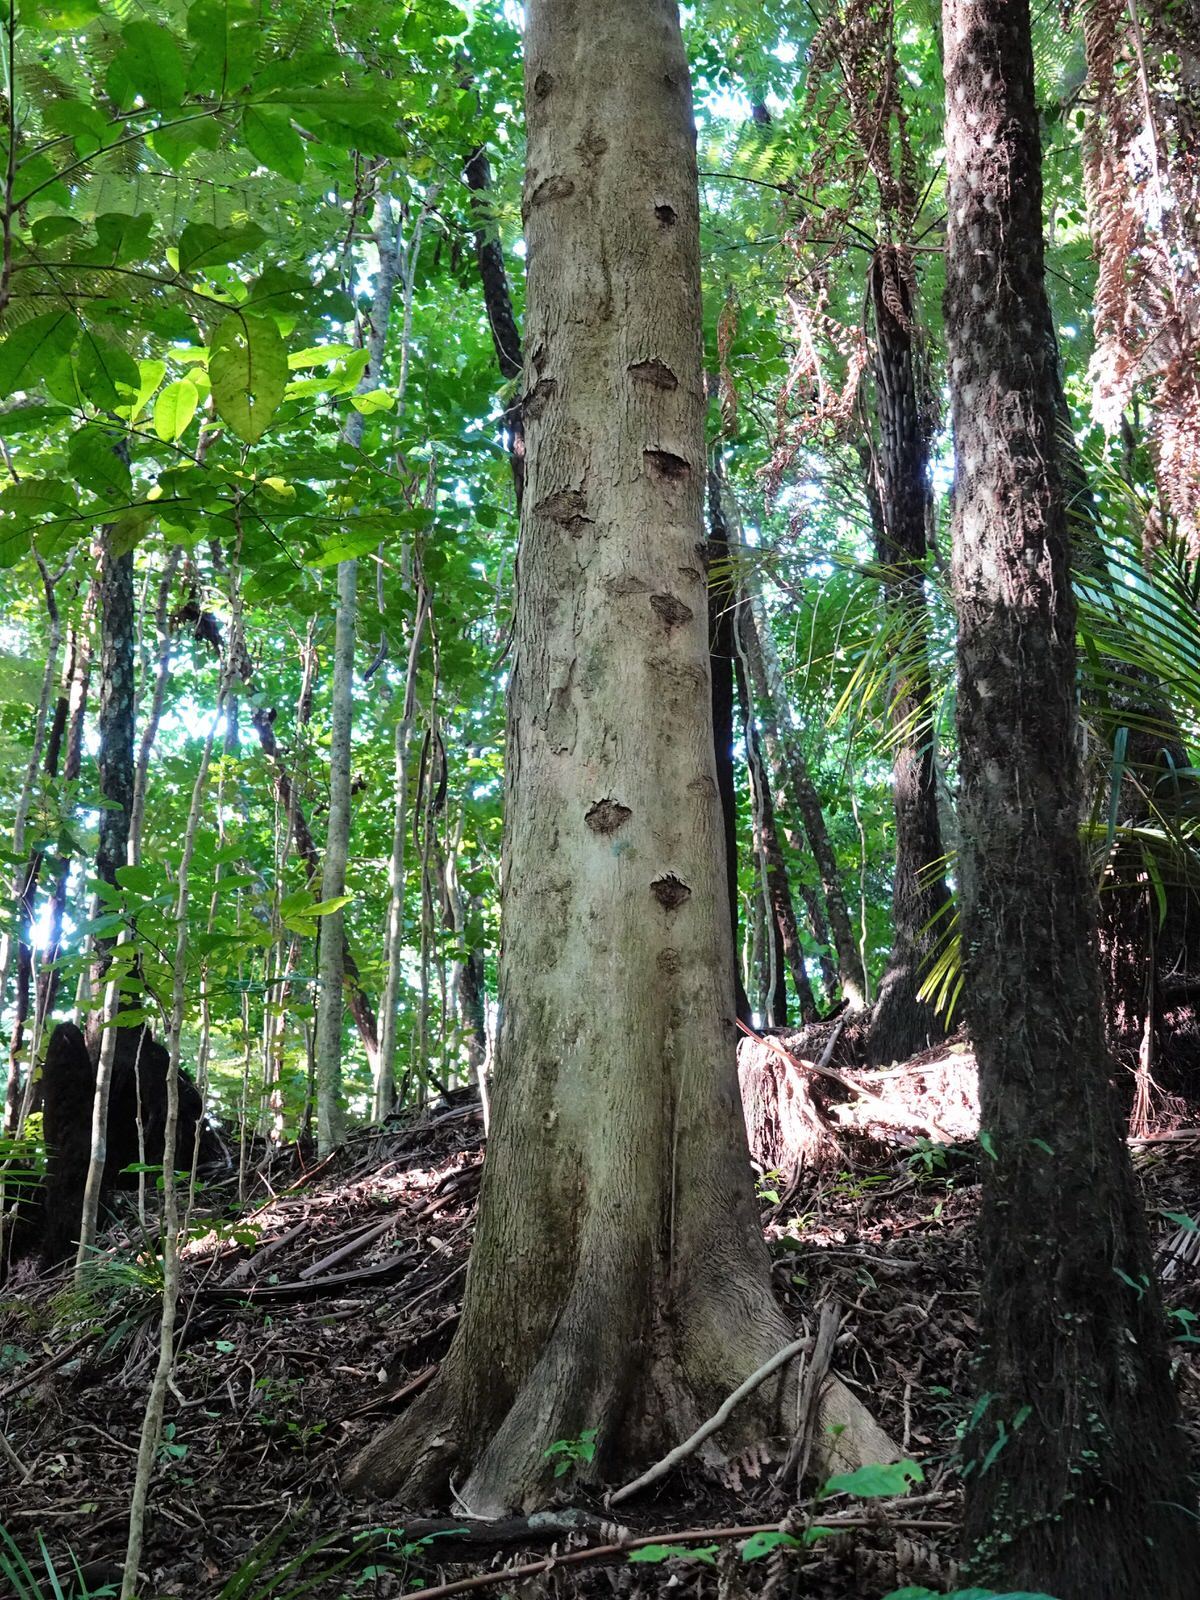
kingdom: Animalia
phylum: Arthropoda
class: Insecta
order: Lepidoptera
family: Hepialidae
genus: Aenetus
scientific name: Aenetus virescens
